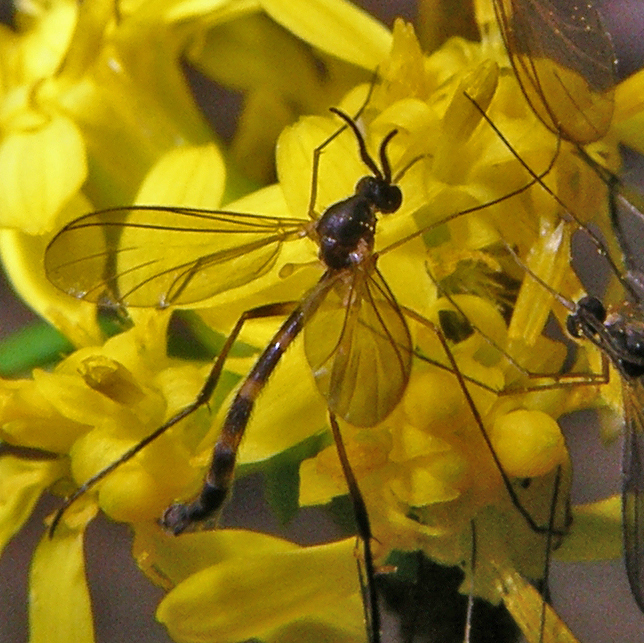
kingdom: Animalia
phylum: Arthropoda
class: Insecta
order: Diptera
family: Keroplatidae
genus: Lygistorrhina
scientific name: Lygistorrhina sanctaecatharinae
